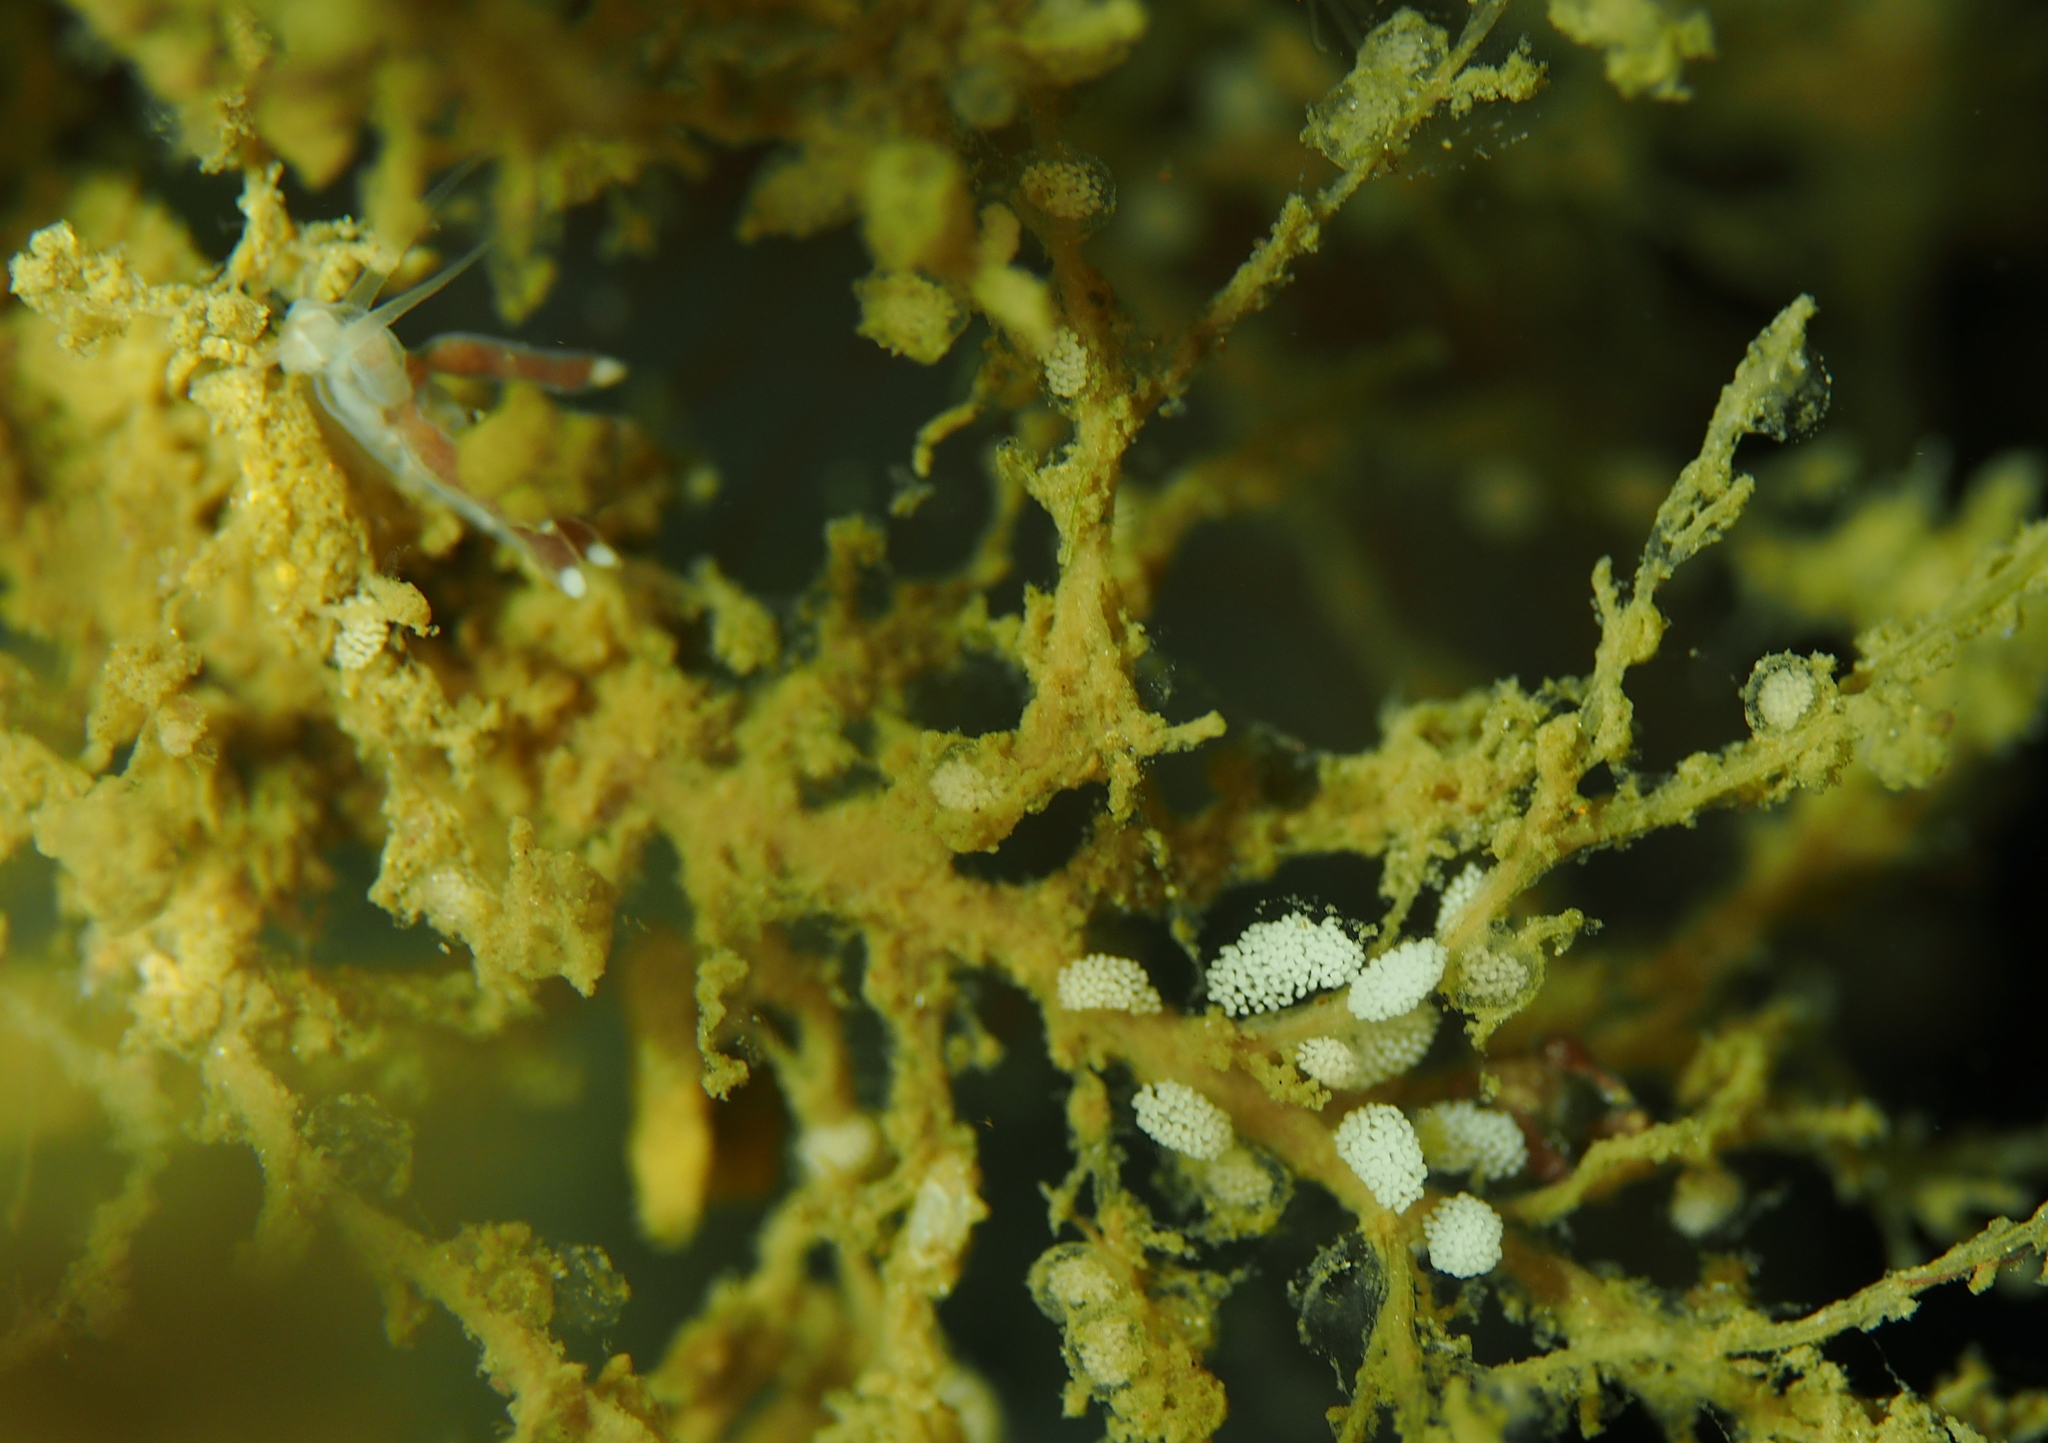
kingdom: Animalia
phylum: Mollusca
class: Gastropoda
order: Nudibranchia
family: Tergipedidae
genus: Tergipes
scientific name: Tergipes tergipes
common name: Johnston's balloon eolis
